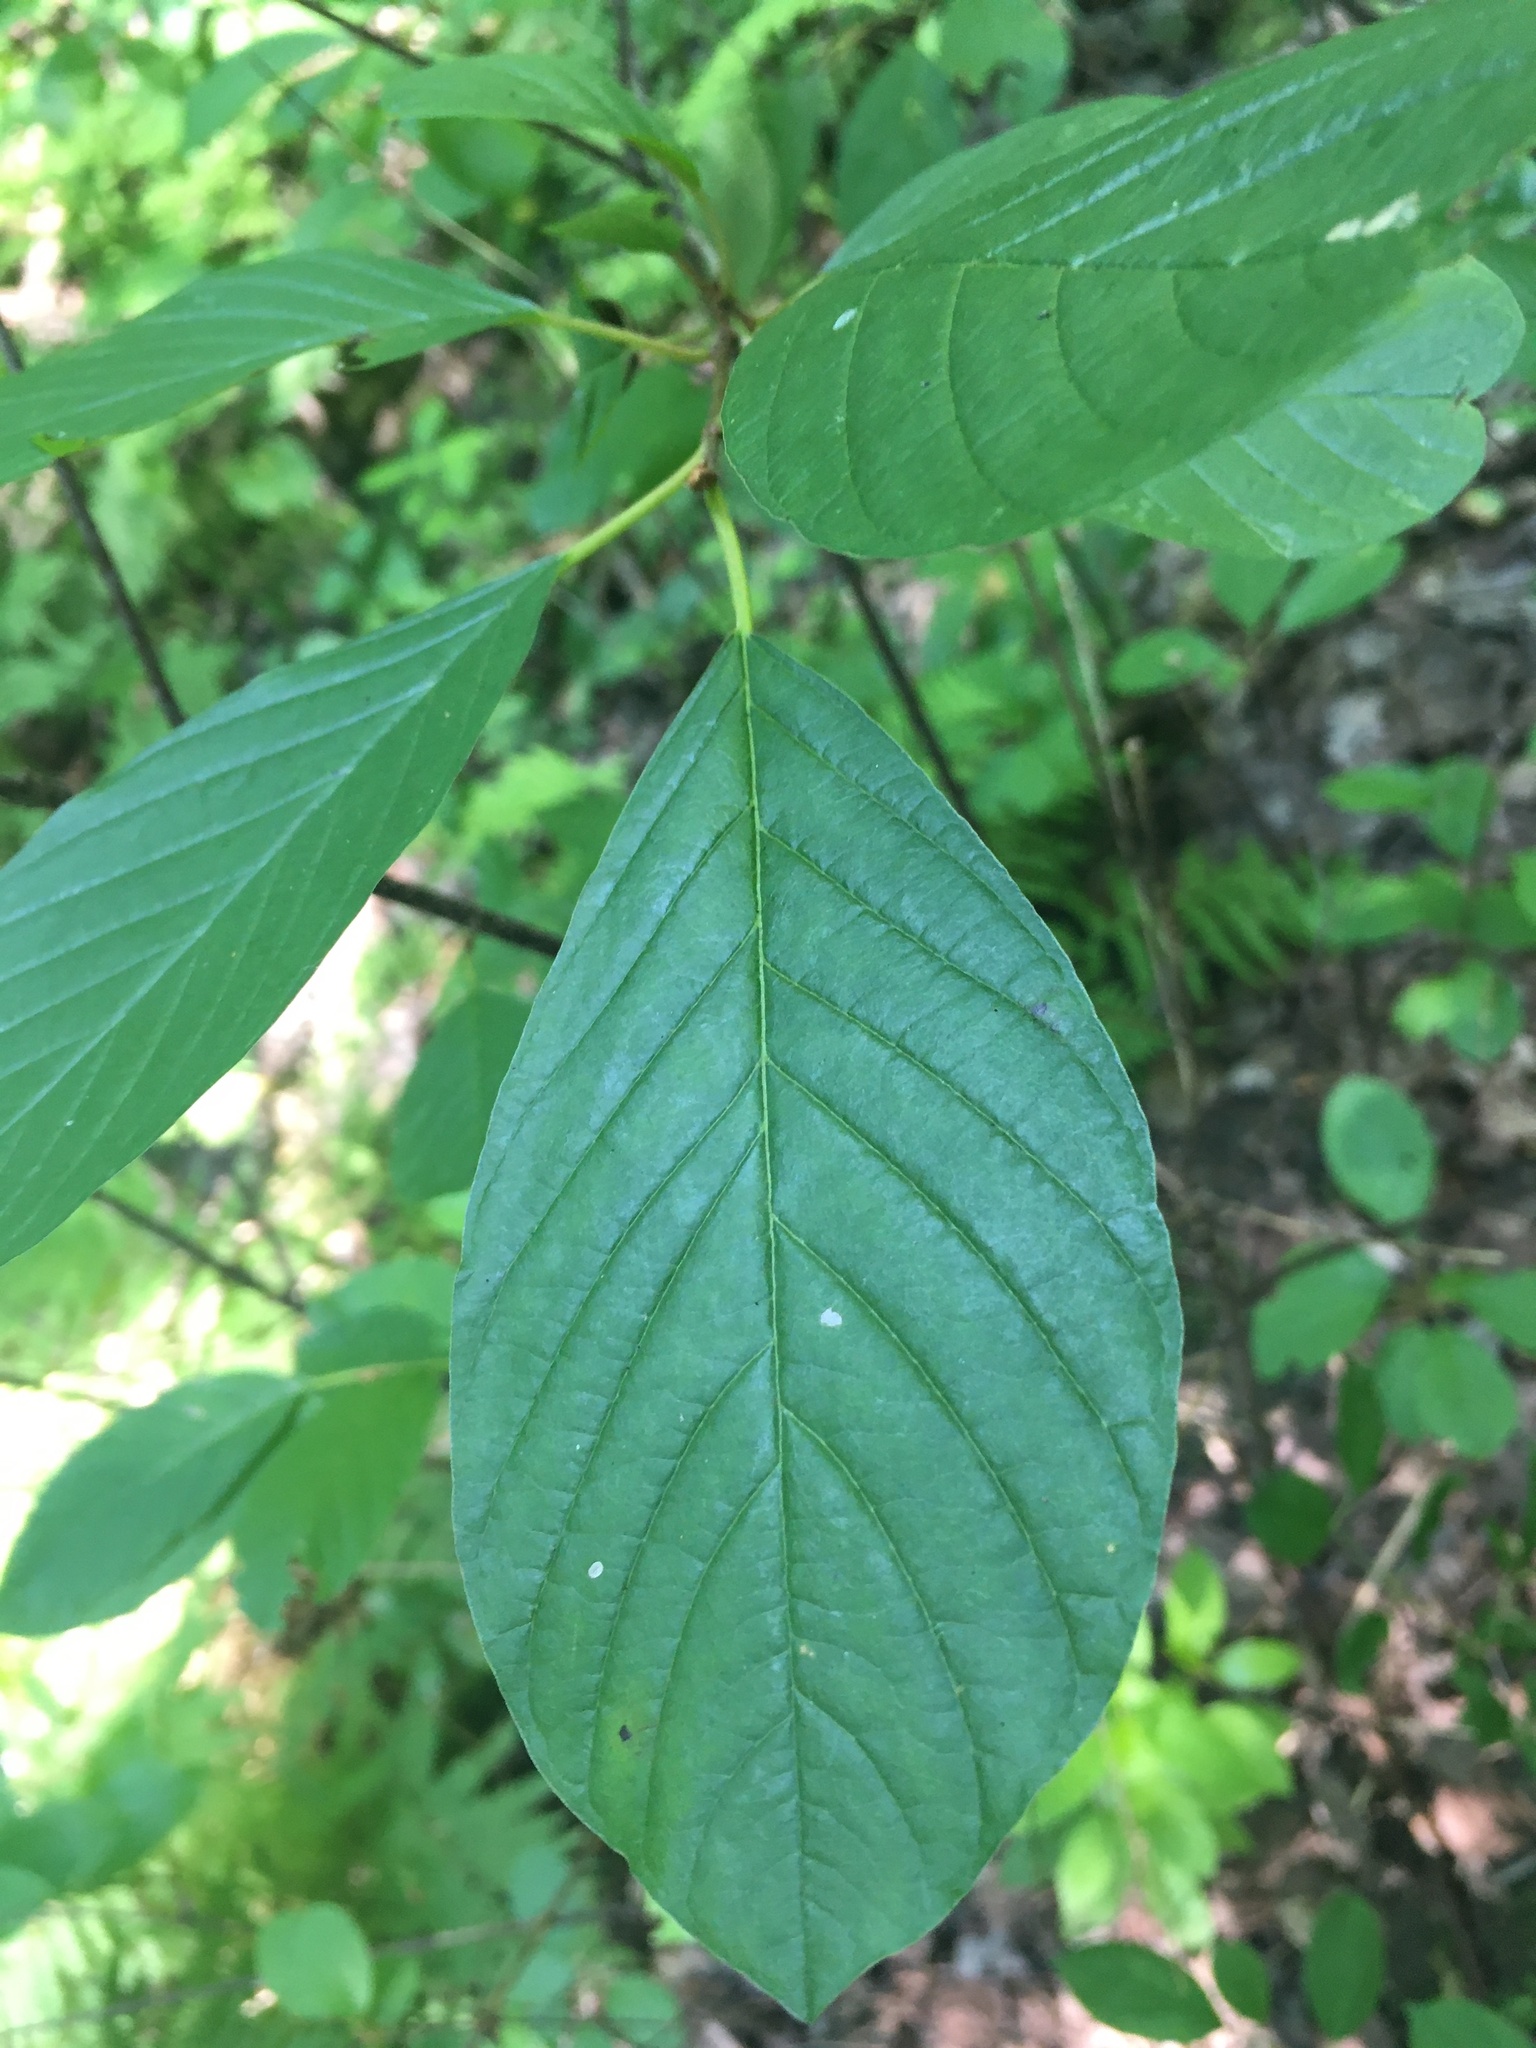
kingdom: Plantae
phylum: Tracheophyta
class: Magnoliopsida
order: Rosales
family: Rhamnaceae
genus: Frangula
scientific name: Frangula alnus
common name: Alder buckthorn
